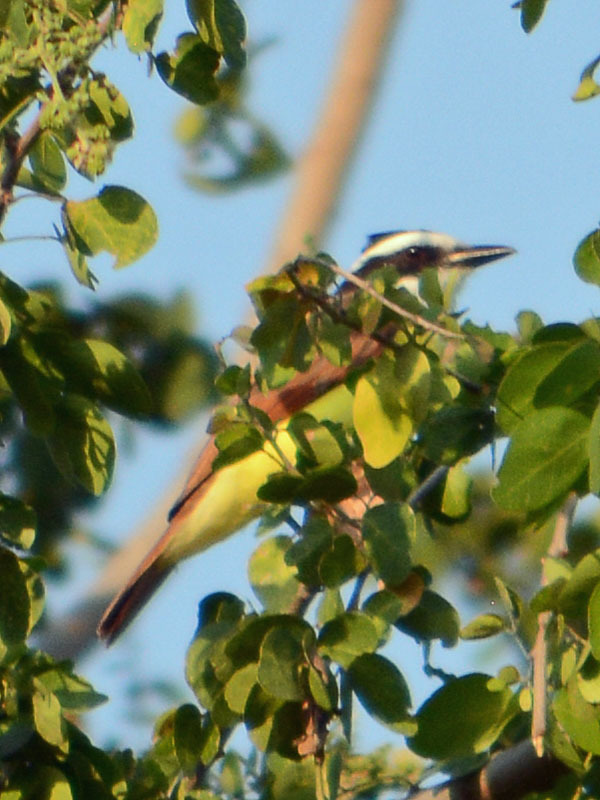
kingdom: Animalia
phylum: Chordata
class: Aves
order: Passeriformes
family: Tyrannidae
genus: Pitangus
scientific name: Pitangus sulphuratus
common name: Great kiskadee
